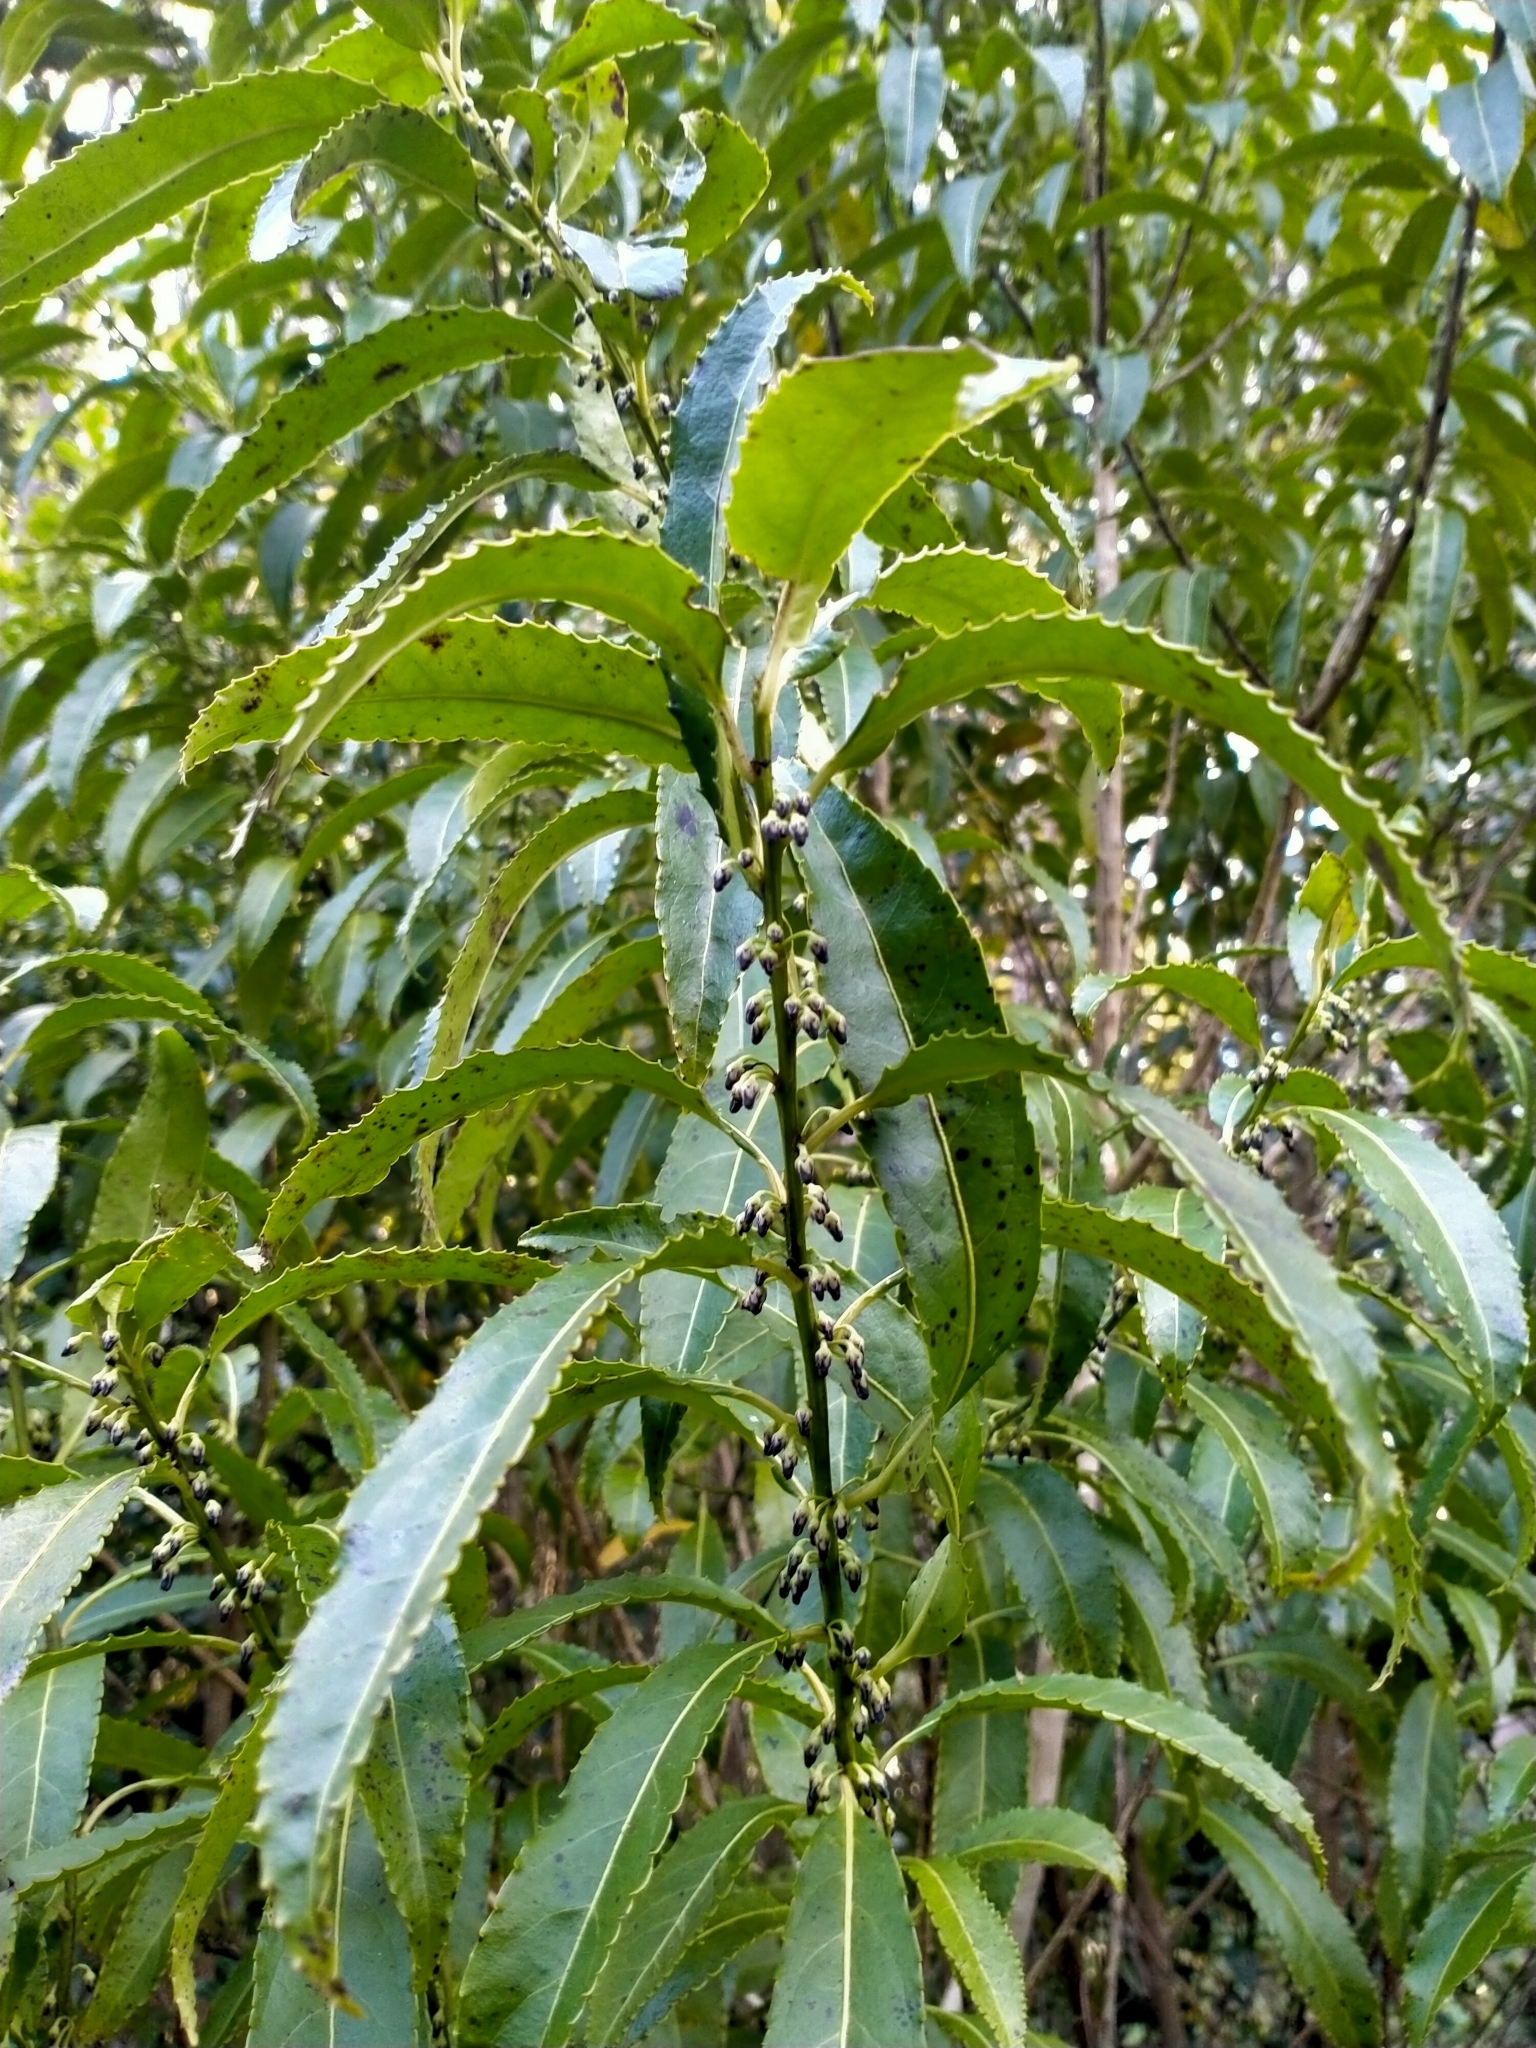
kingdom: Plantae
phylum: Tracheophyta
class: Magnoliopsida
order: Malpighiales
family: Violaceae
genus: Melicytus
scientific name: Melicytus lanceolatus
